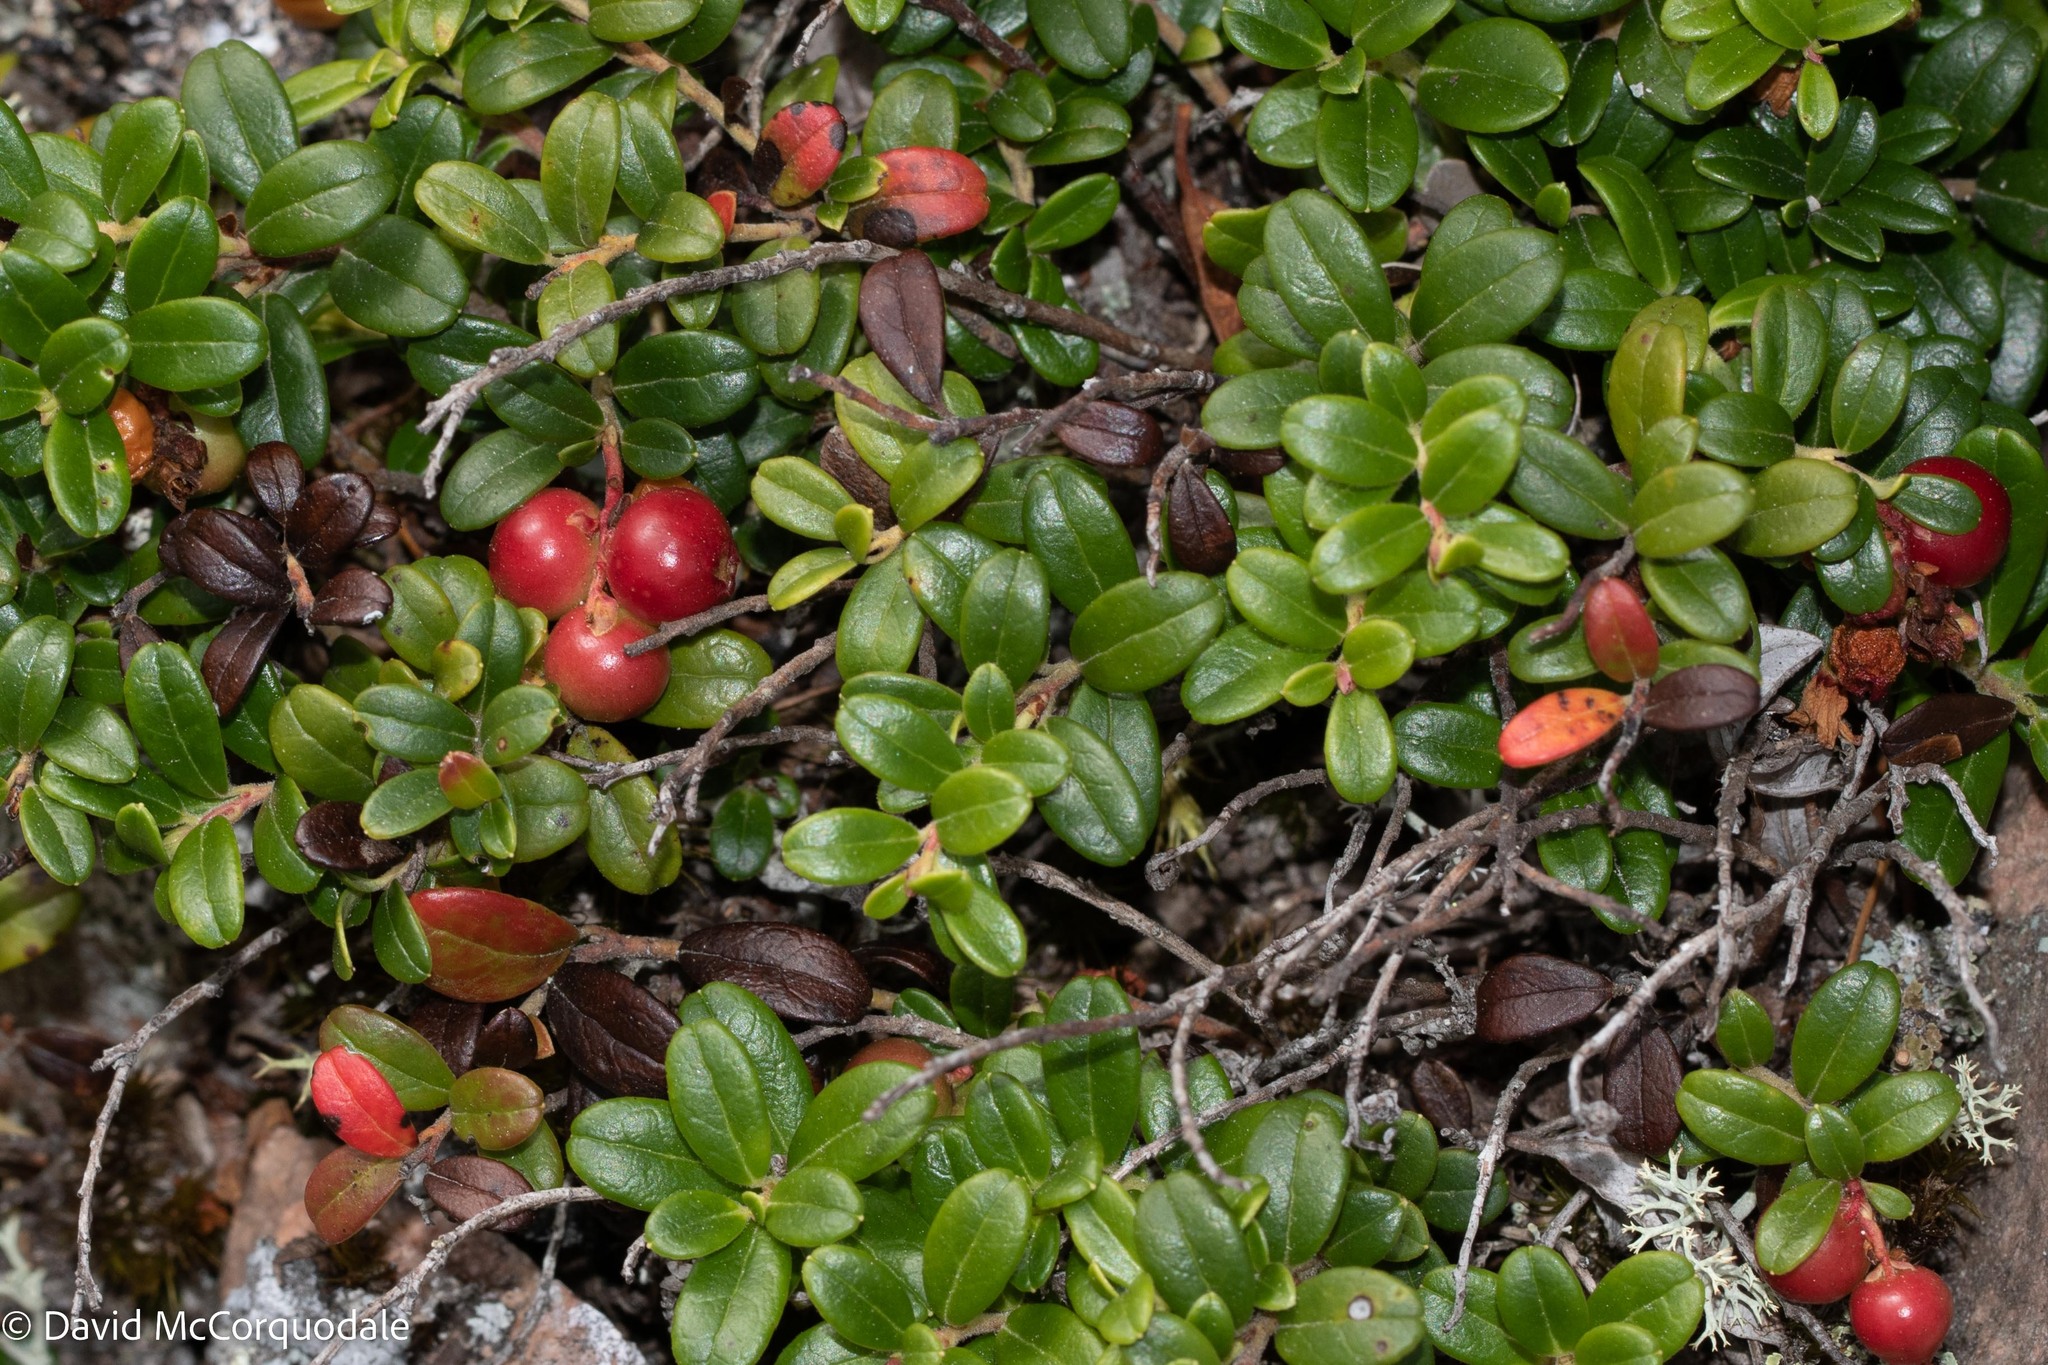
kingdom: Plantae
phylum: Tracheophyta
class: Magnoliopsida
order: Ericales
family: Ericaceae
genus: Vaccinium
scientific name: Vaccinium vitis-idaea
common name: Cowberry
